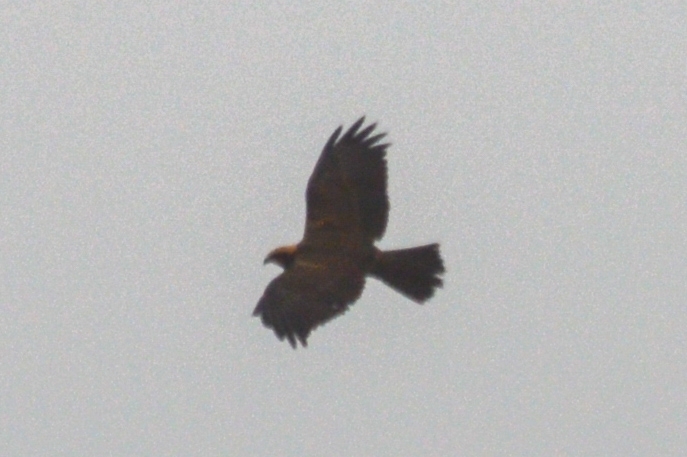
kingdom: Animalia
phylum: Chordata
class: Aves
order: Accipitriformes
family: Accipitridae
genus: Circus
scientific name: Circus aeruginosus
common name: Western marsh harrier
